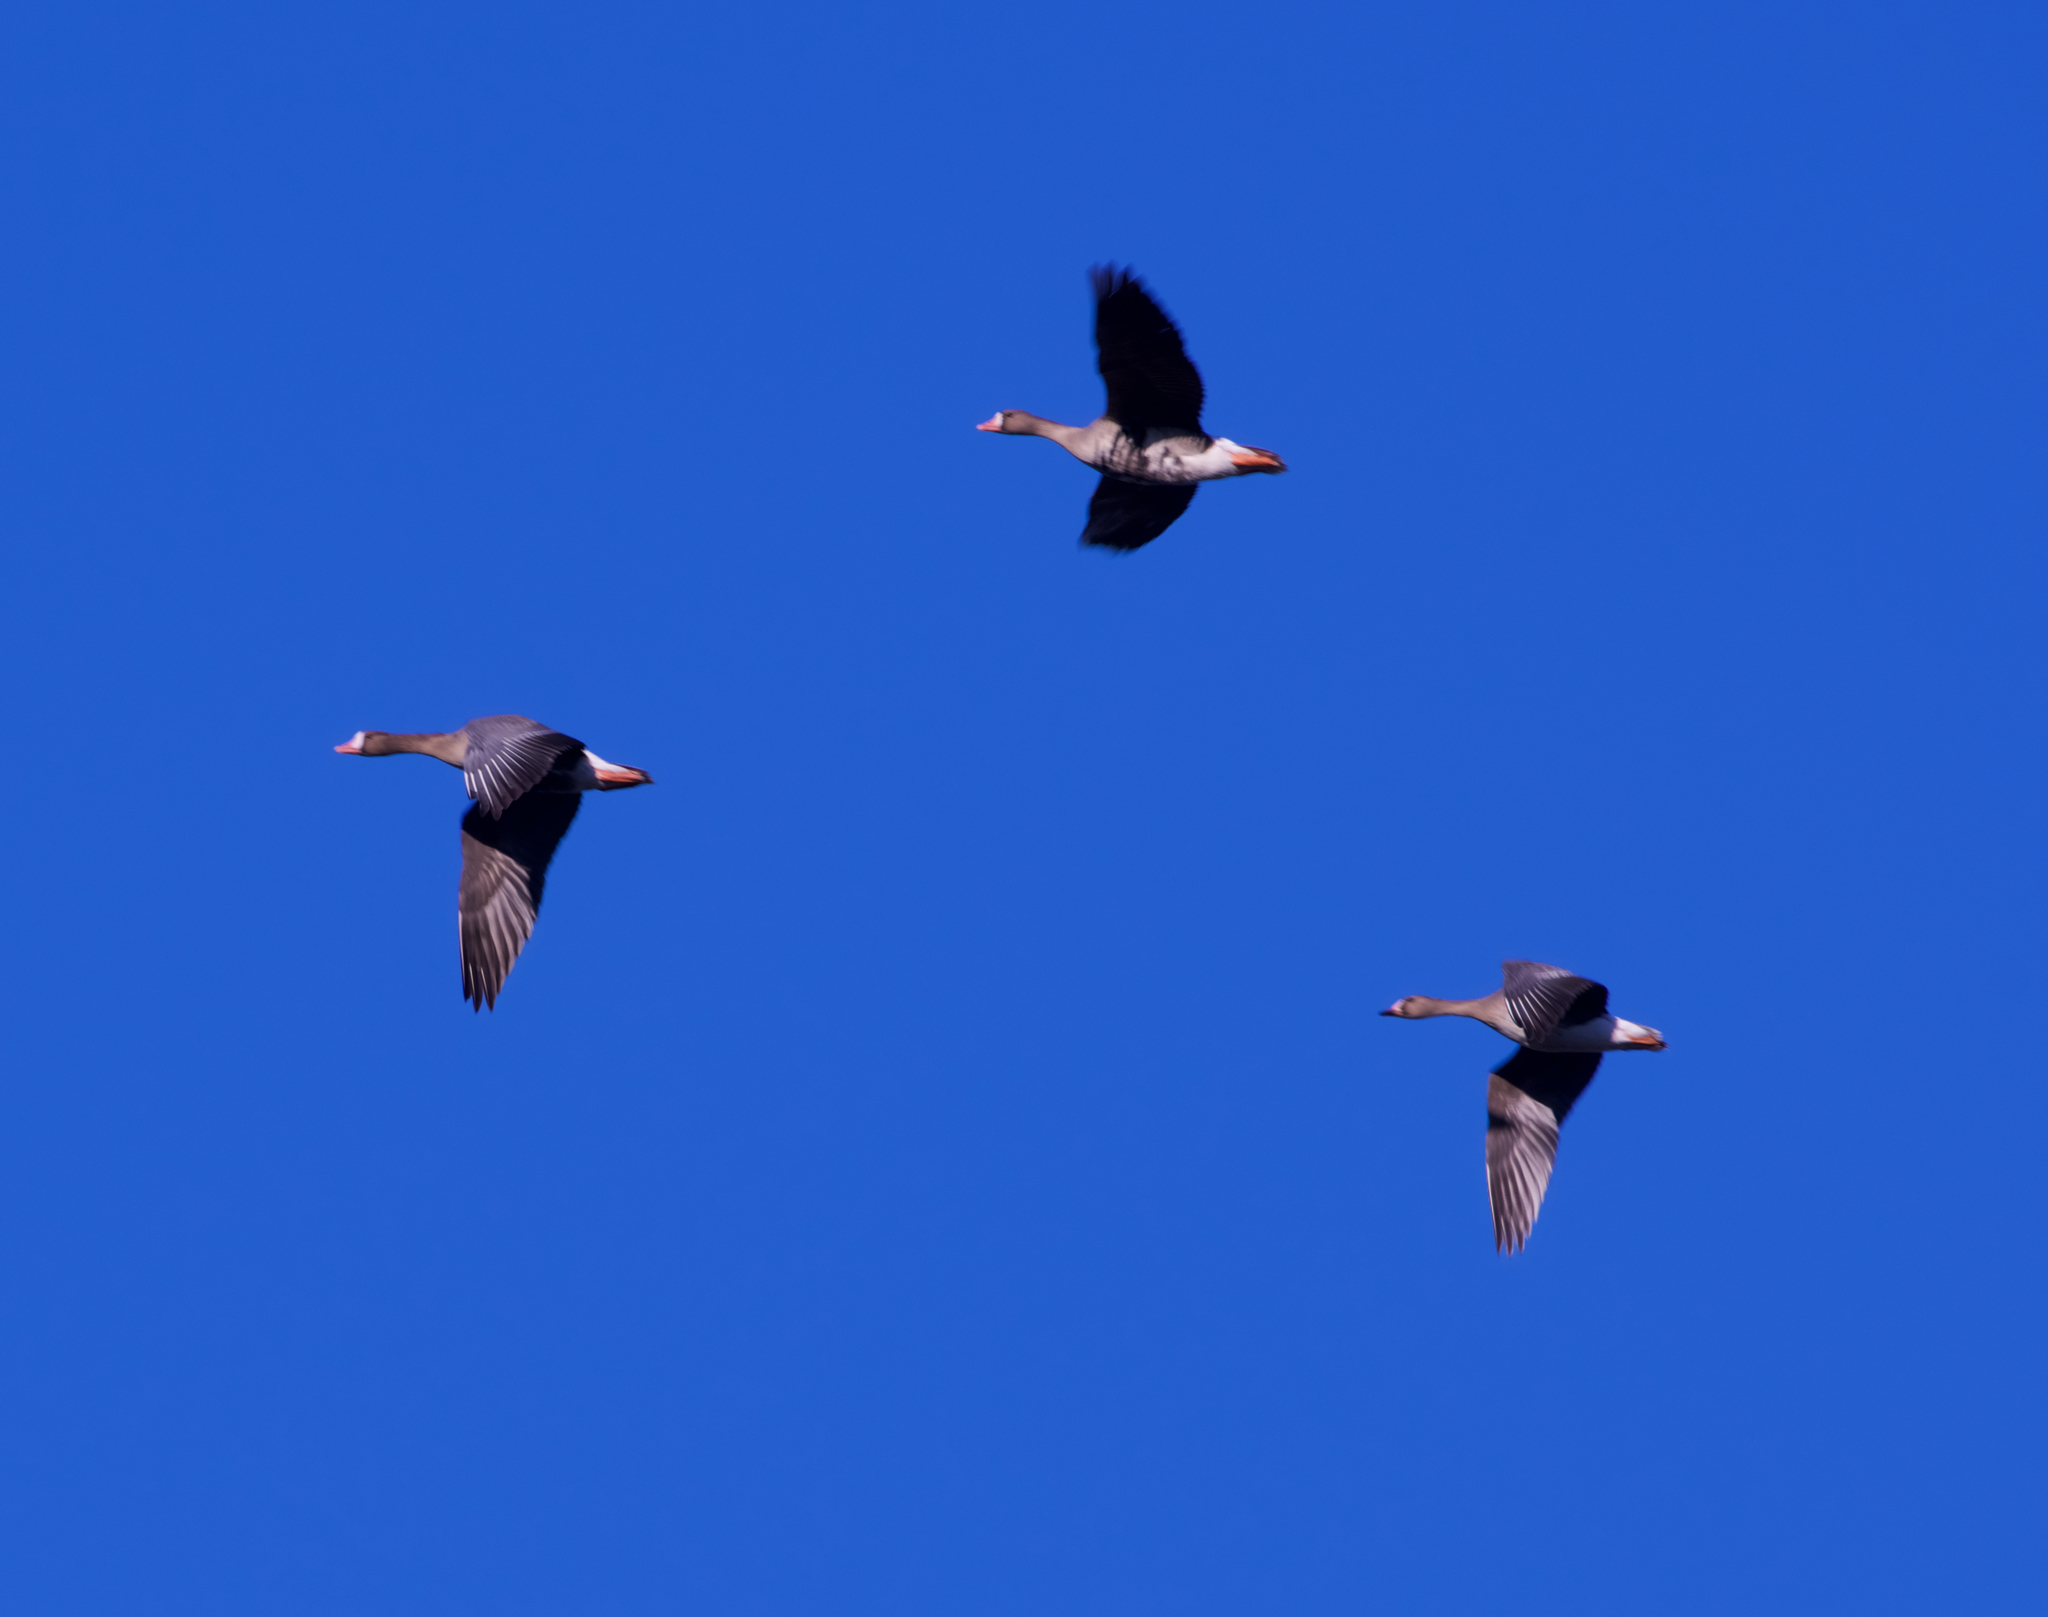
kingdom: Animalia
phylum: Chordata
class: Aves
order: Anseriformes
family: Anatidae
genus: Anser
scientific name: Anser albifrons
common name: Greater white-fronted goose
